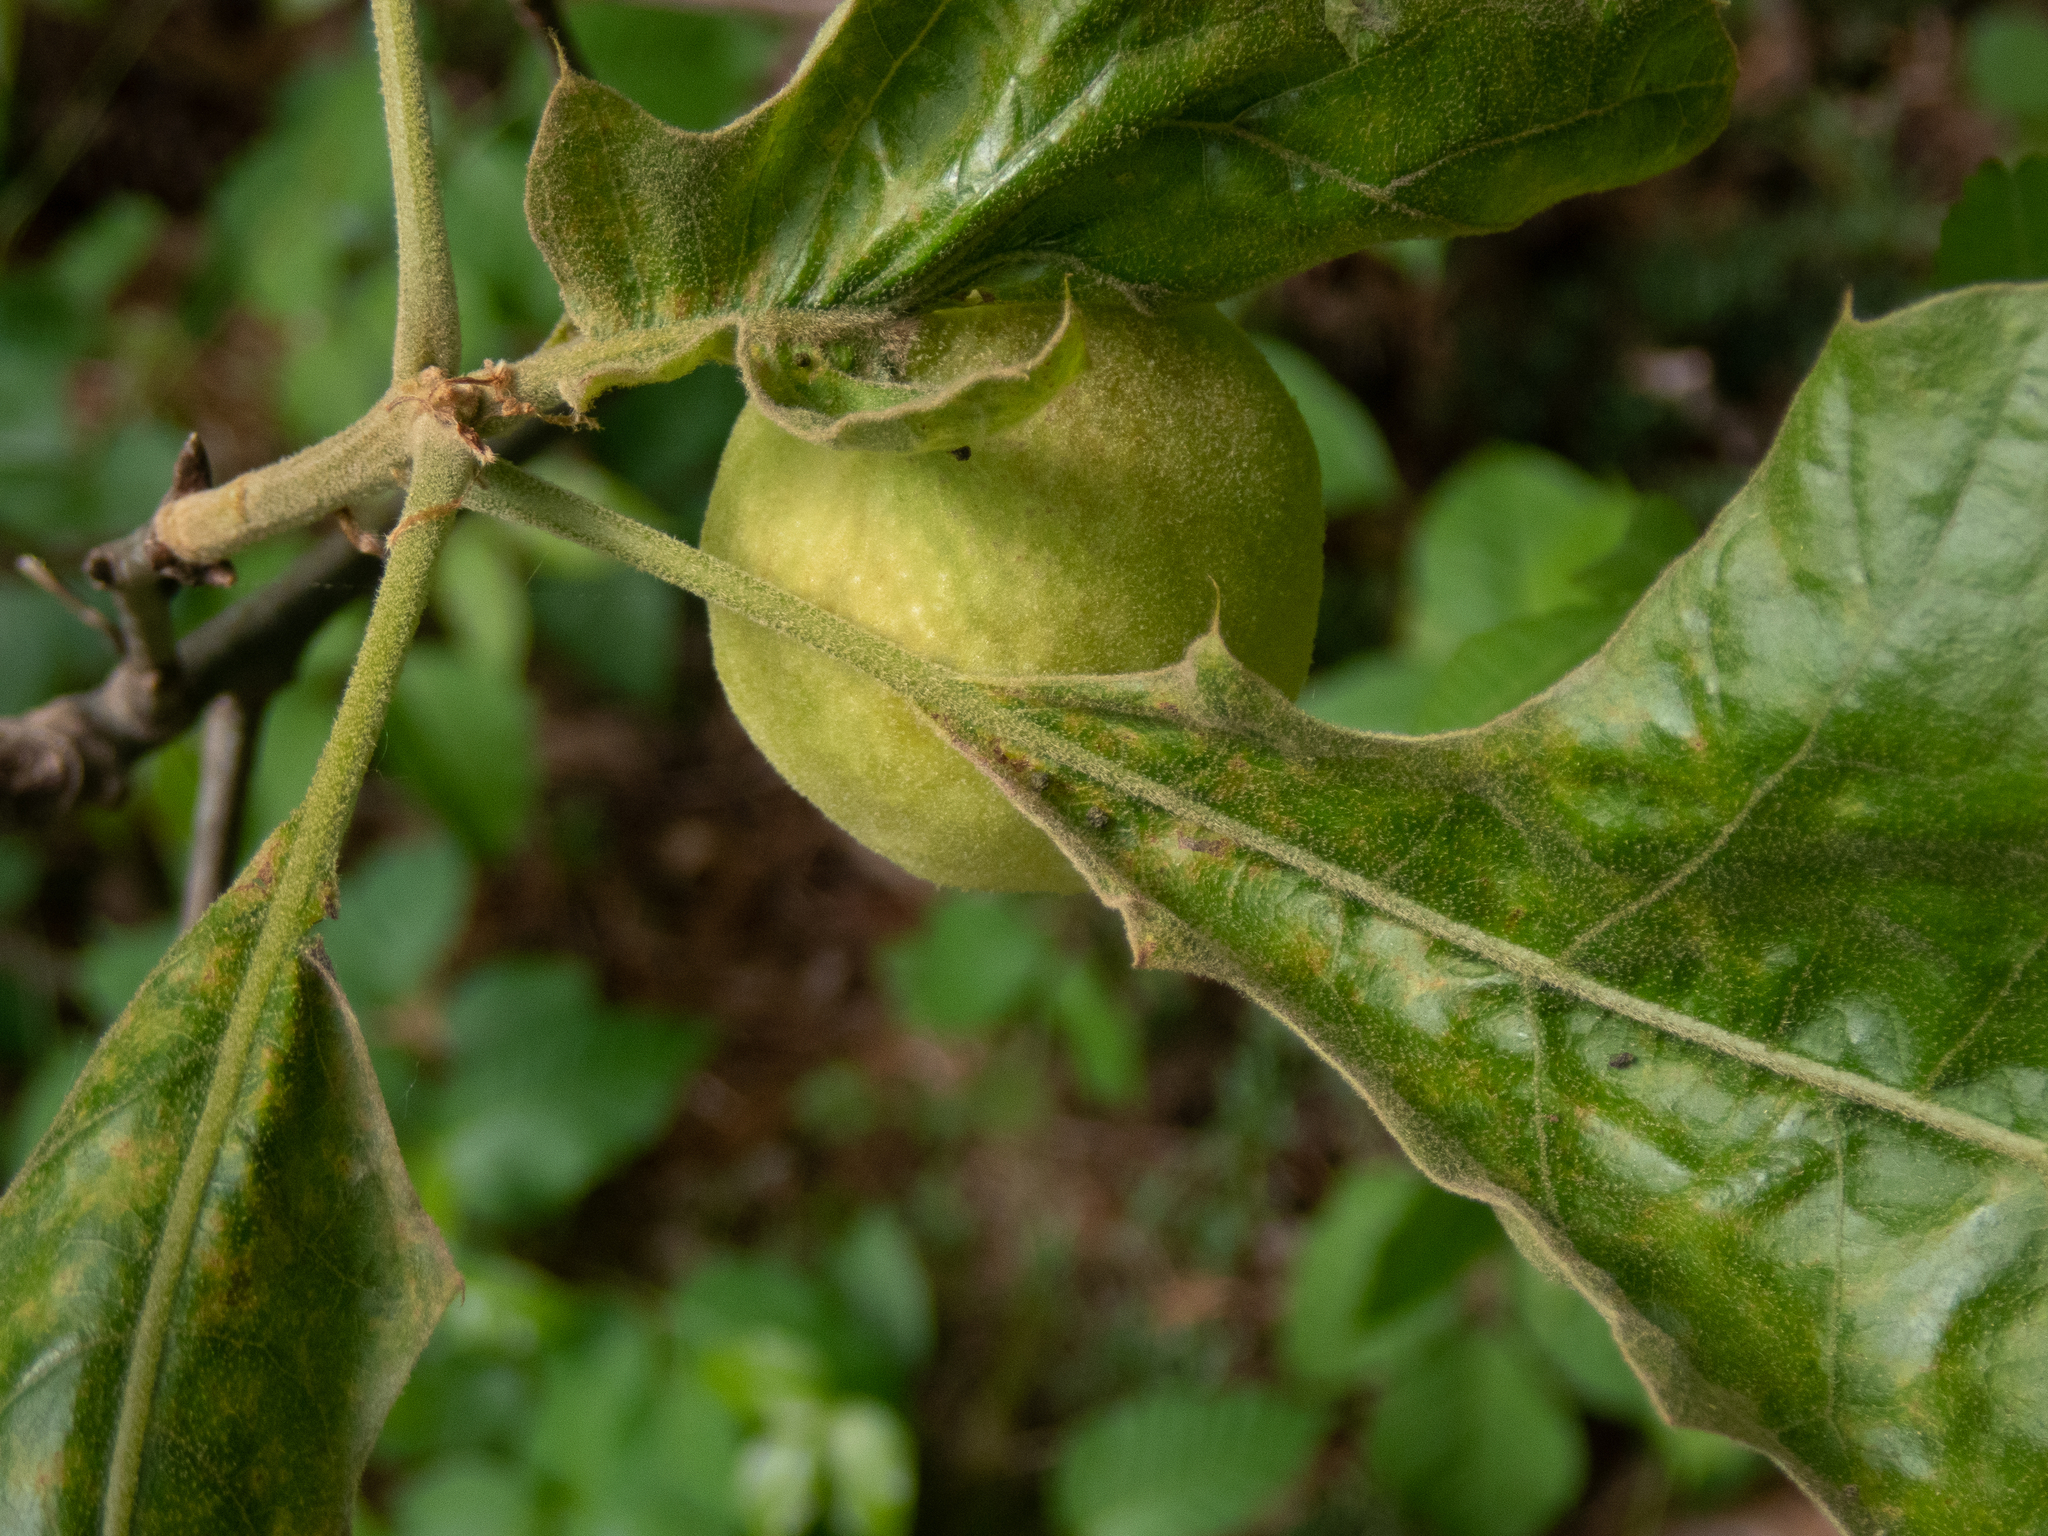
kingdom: Animalia
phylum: Arthropoda
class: Insecta
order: Hymenoptera
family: Cynipidae
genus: Amphibolips
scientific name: Amphibolips
